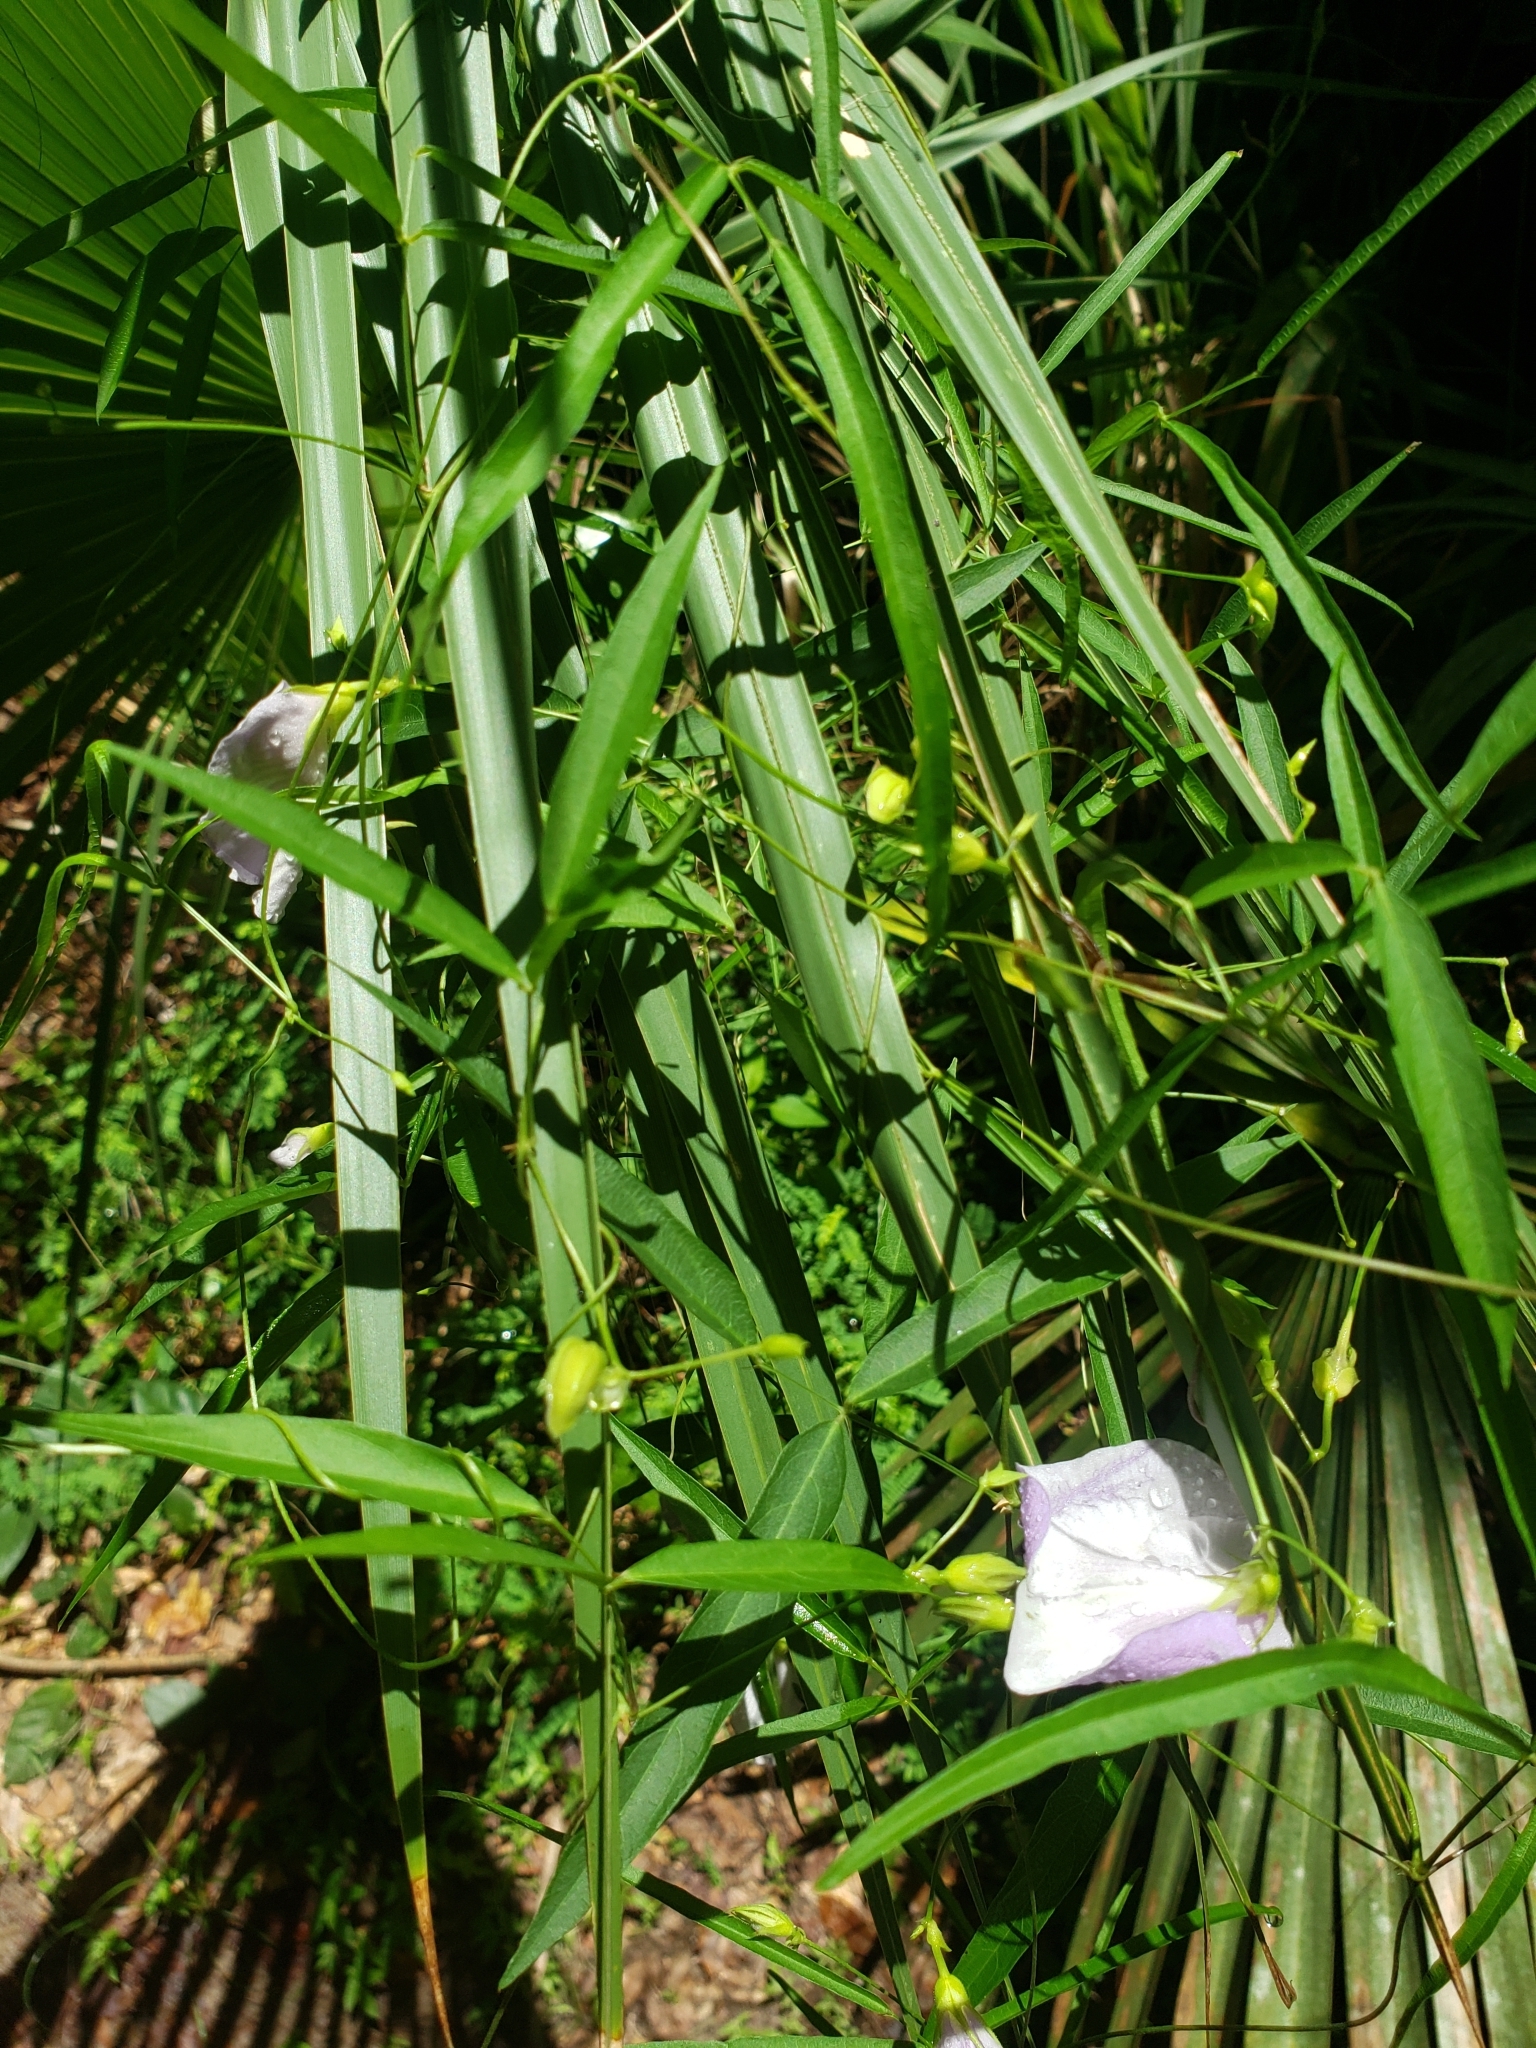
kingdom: Plantae
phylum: Tracheophyta
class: Magnoliopsida
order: Fabales
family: Fabaceae
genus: Centrosema
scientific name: Centrosema virginianum
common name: Butterfly-pea
